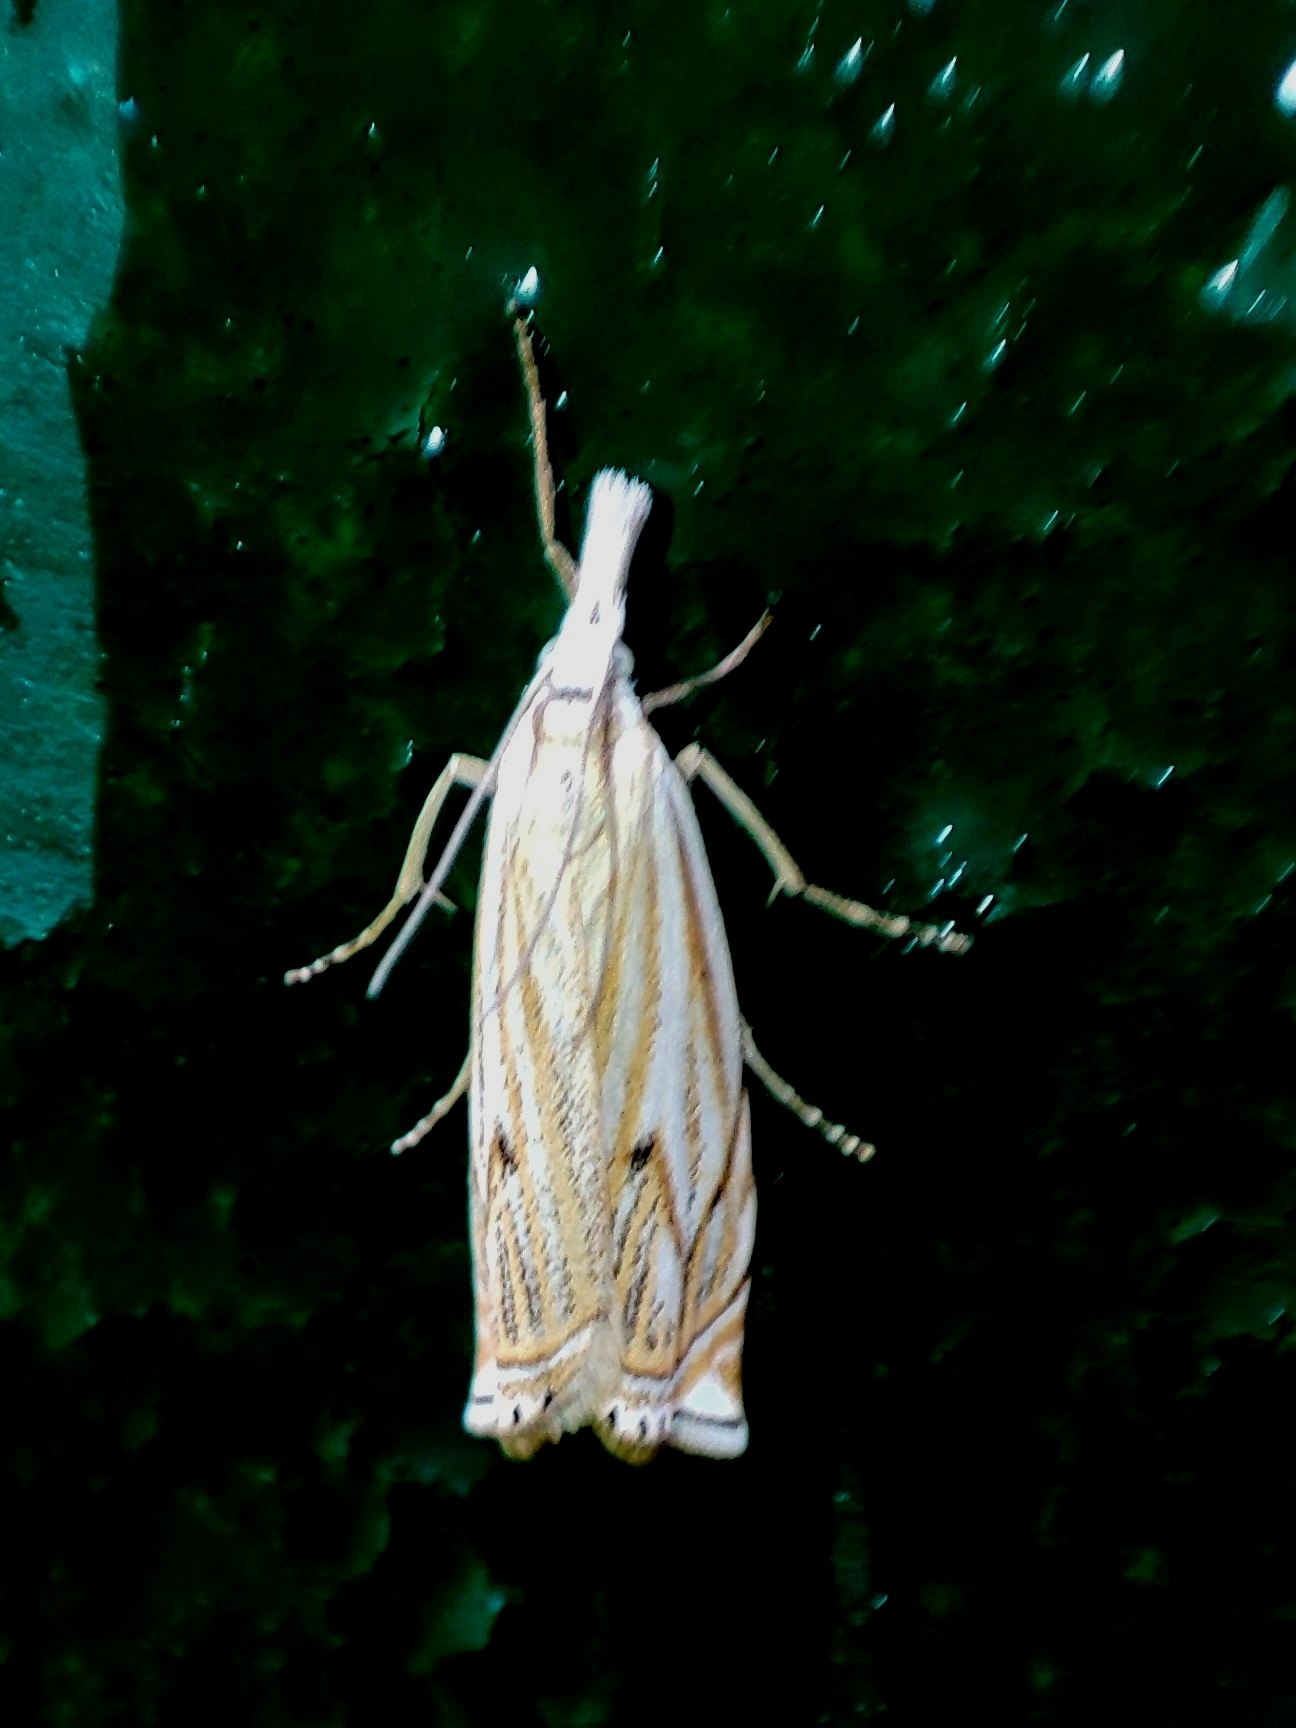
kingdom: Animalia
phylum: Arthropoda
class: Insecta
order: Lepidoptera
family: Crambidae
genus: Crambus
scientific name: Crambus nemorella
